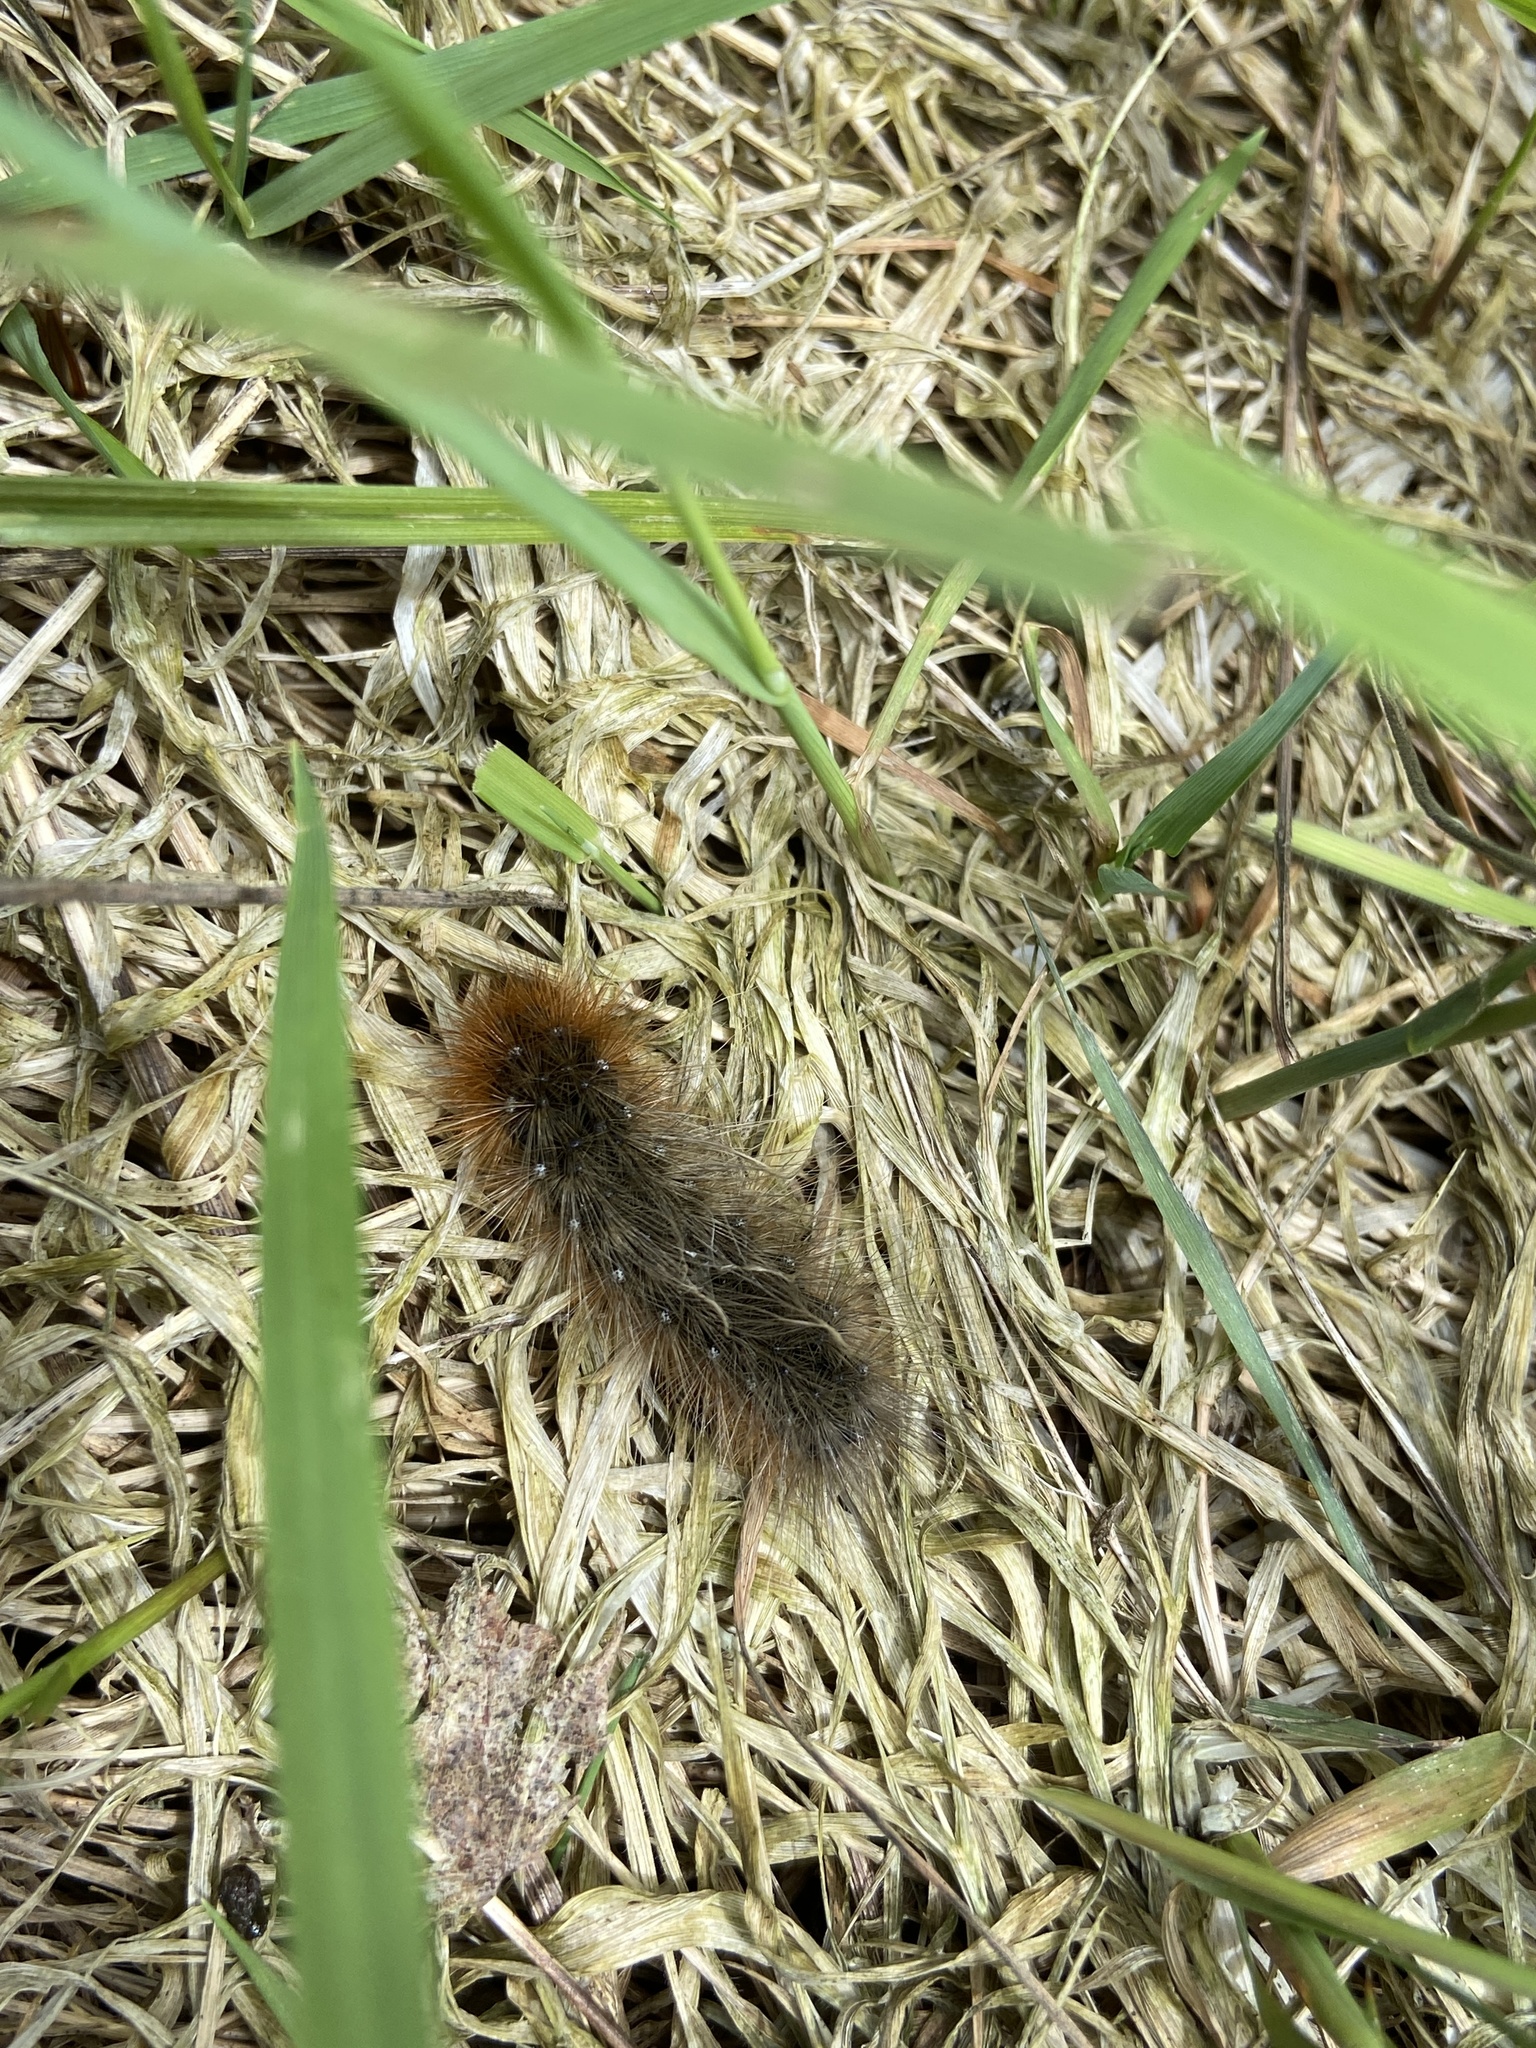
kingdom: Animalia
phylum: Arthropoda
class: Insecta
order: Lepidoptera
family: Erebidae
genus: Arctia
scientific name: Arctia caja
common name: Garden tiger
